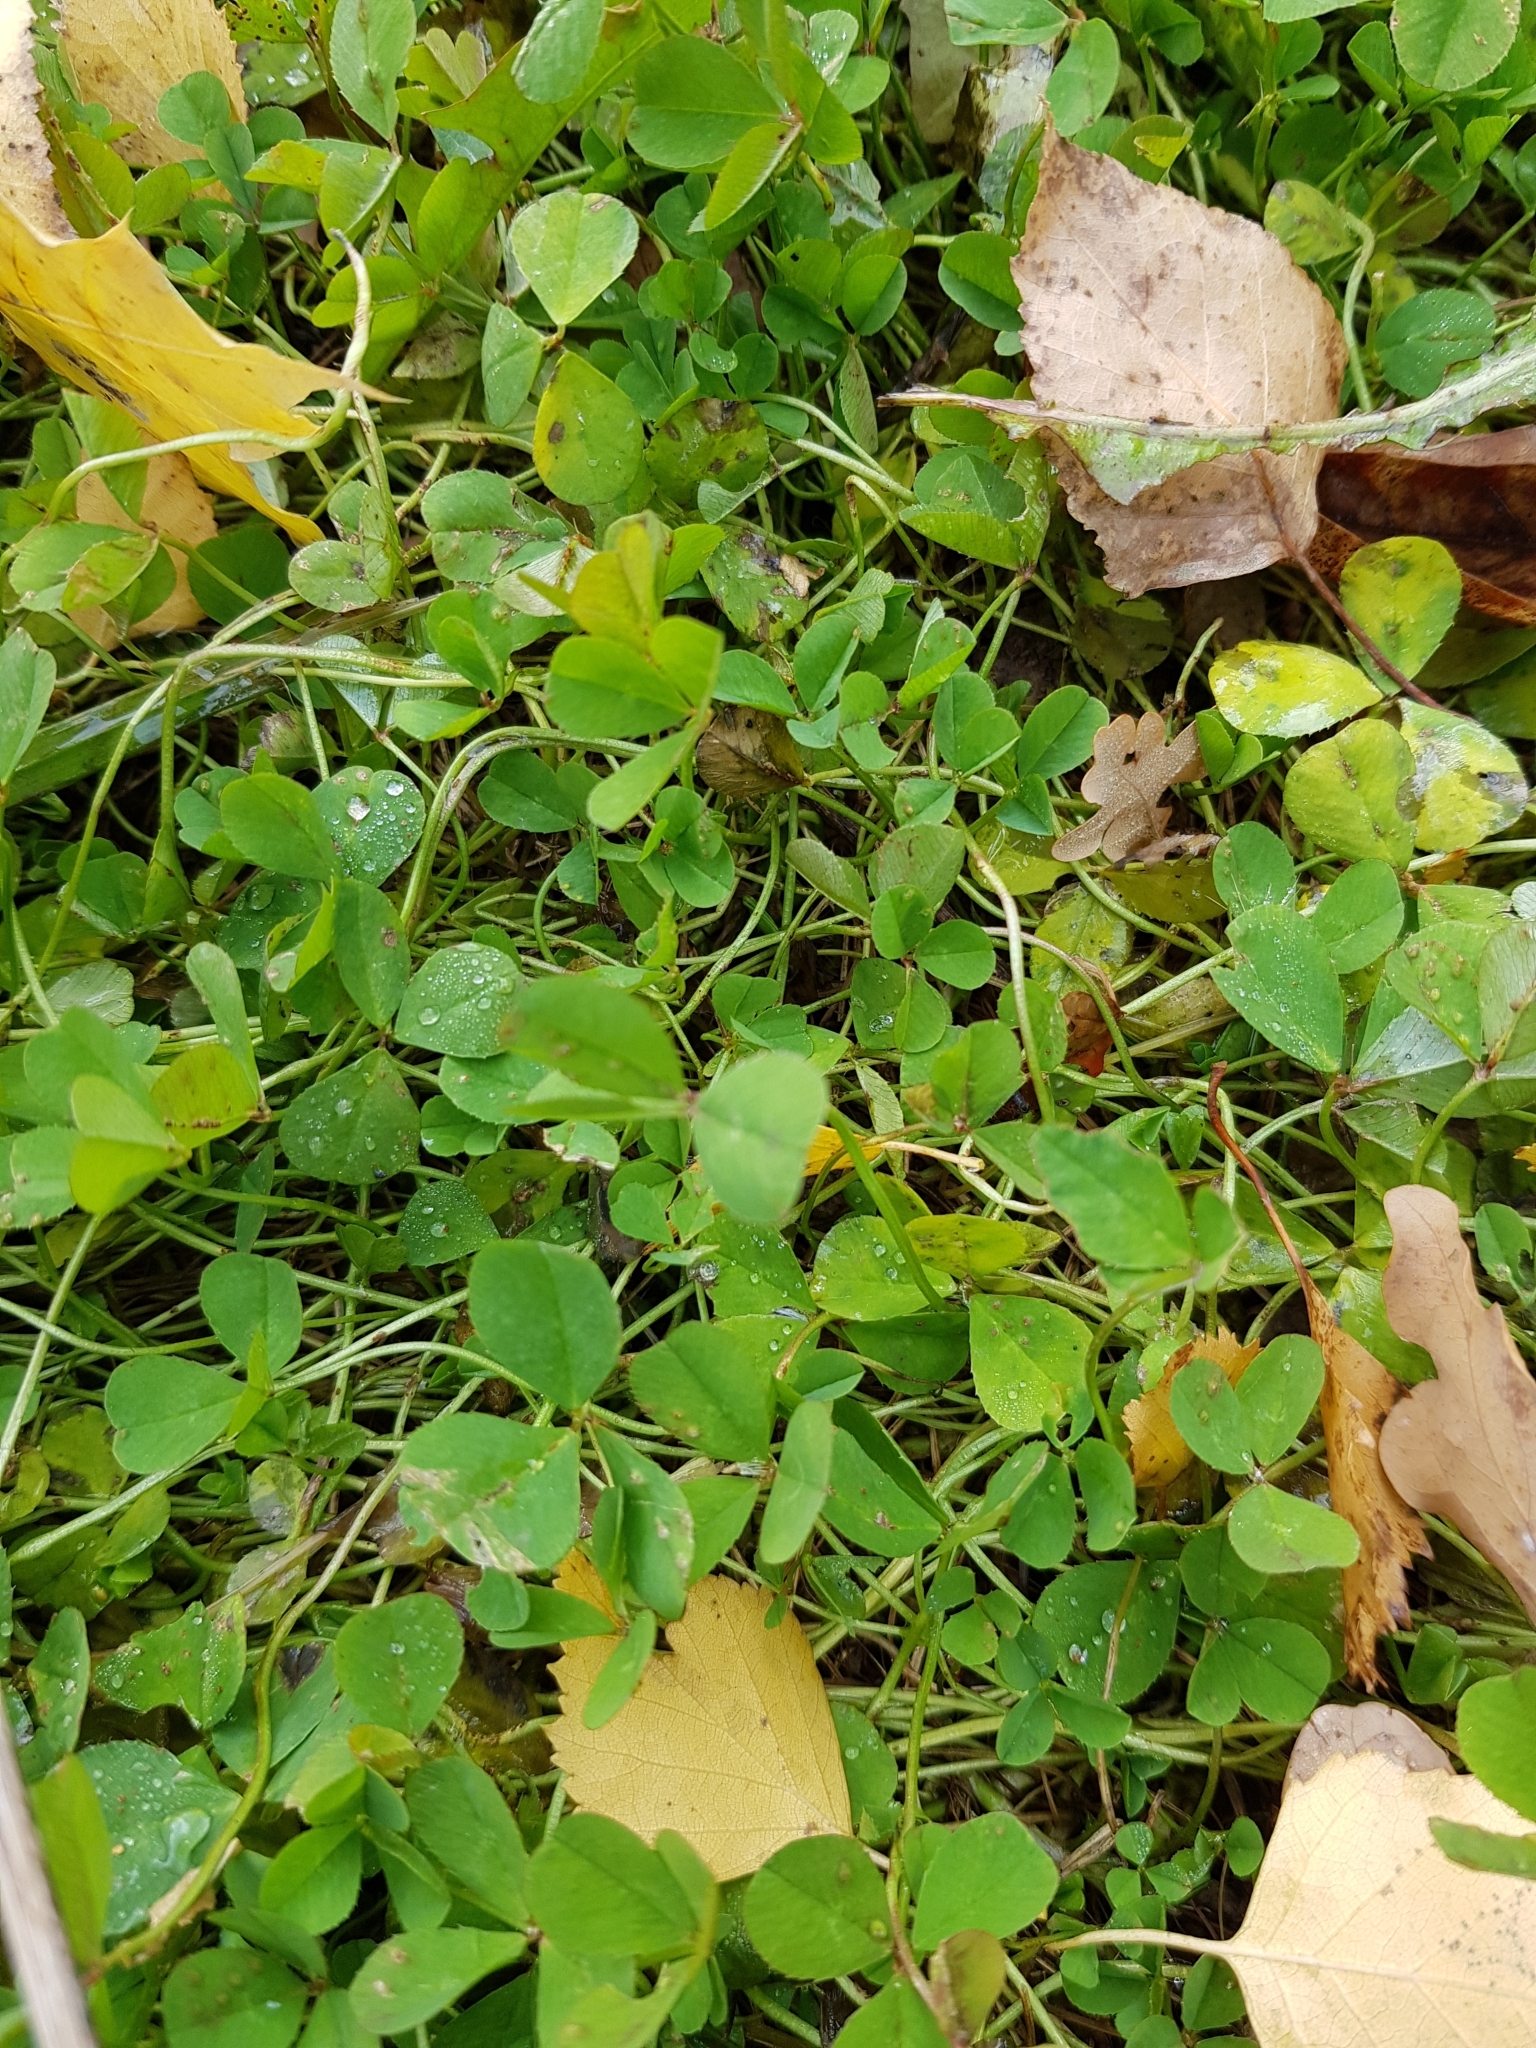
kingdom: Plantae
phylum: Tracheophyta
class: Magnoliopsida
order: Fabales
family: Fabaceae
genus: Trifolium
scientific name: Trifolium repens
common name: White clover
